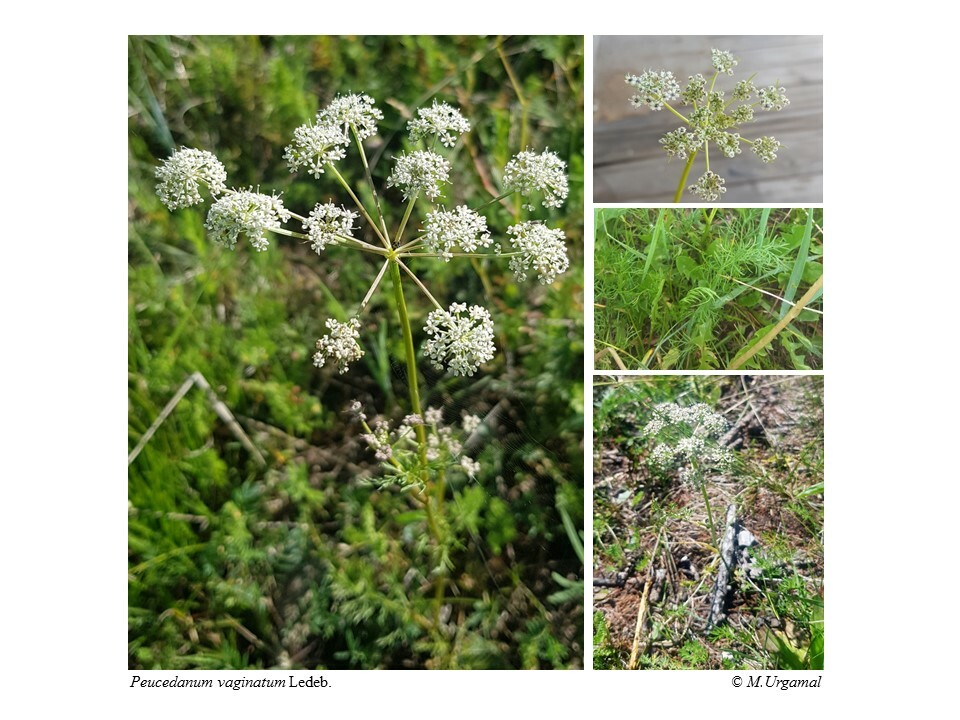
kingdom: Plantae
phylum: Tracheophyta
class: Magnoliopsida
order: Apiales
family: Apiaceae
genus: Peucedanum
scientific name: Peucedanum vaginatum
